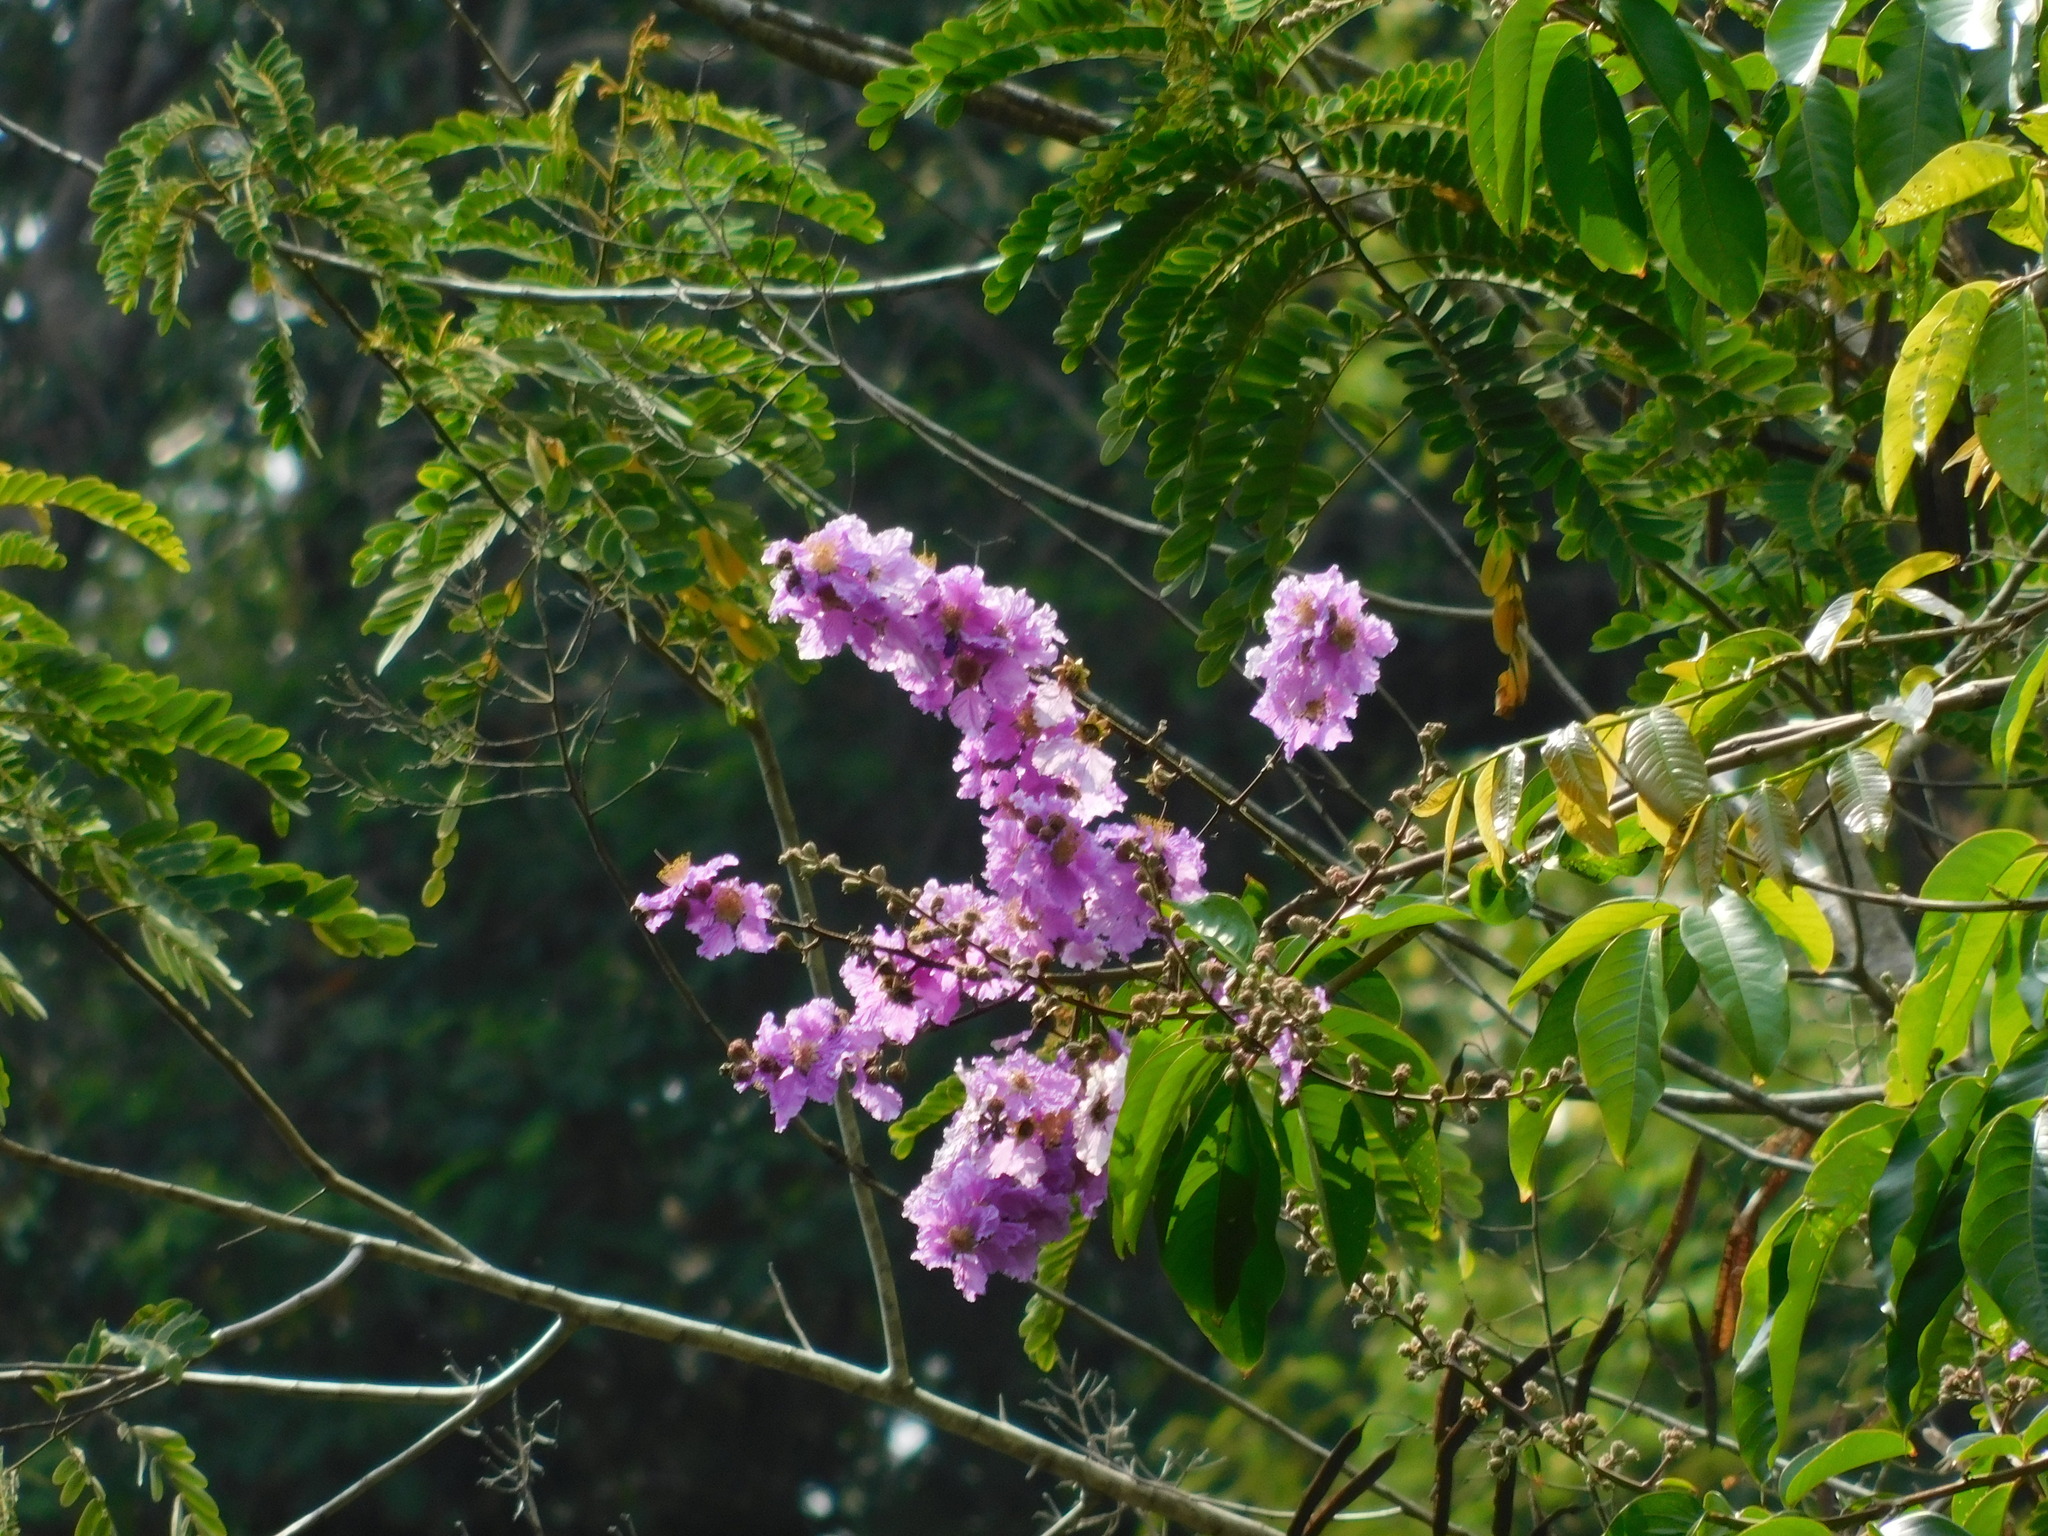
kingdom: Plantae
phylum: Tracheophyta
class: Magnoliopsida
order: Myrtales
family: Lythraceae
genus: Lagerstroemia
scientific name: Lagerstroemia speciosa
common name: Queen's crape-myrtle
